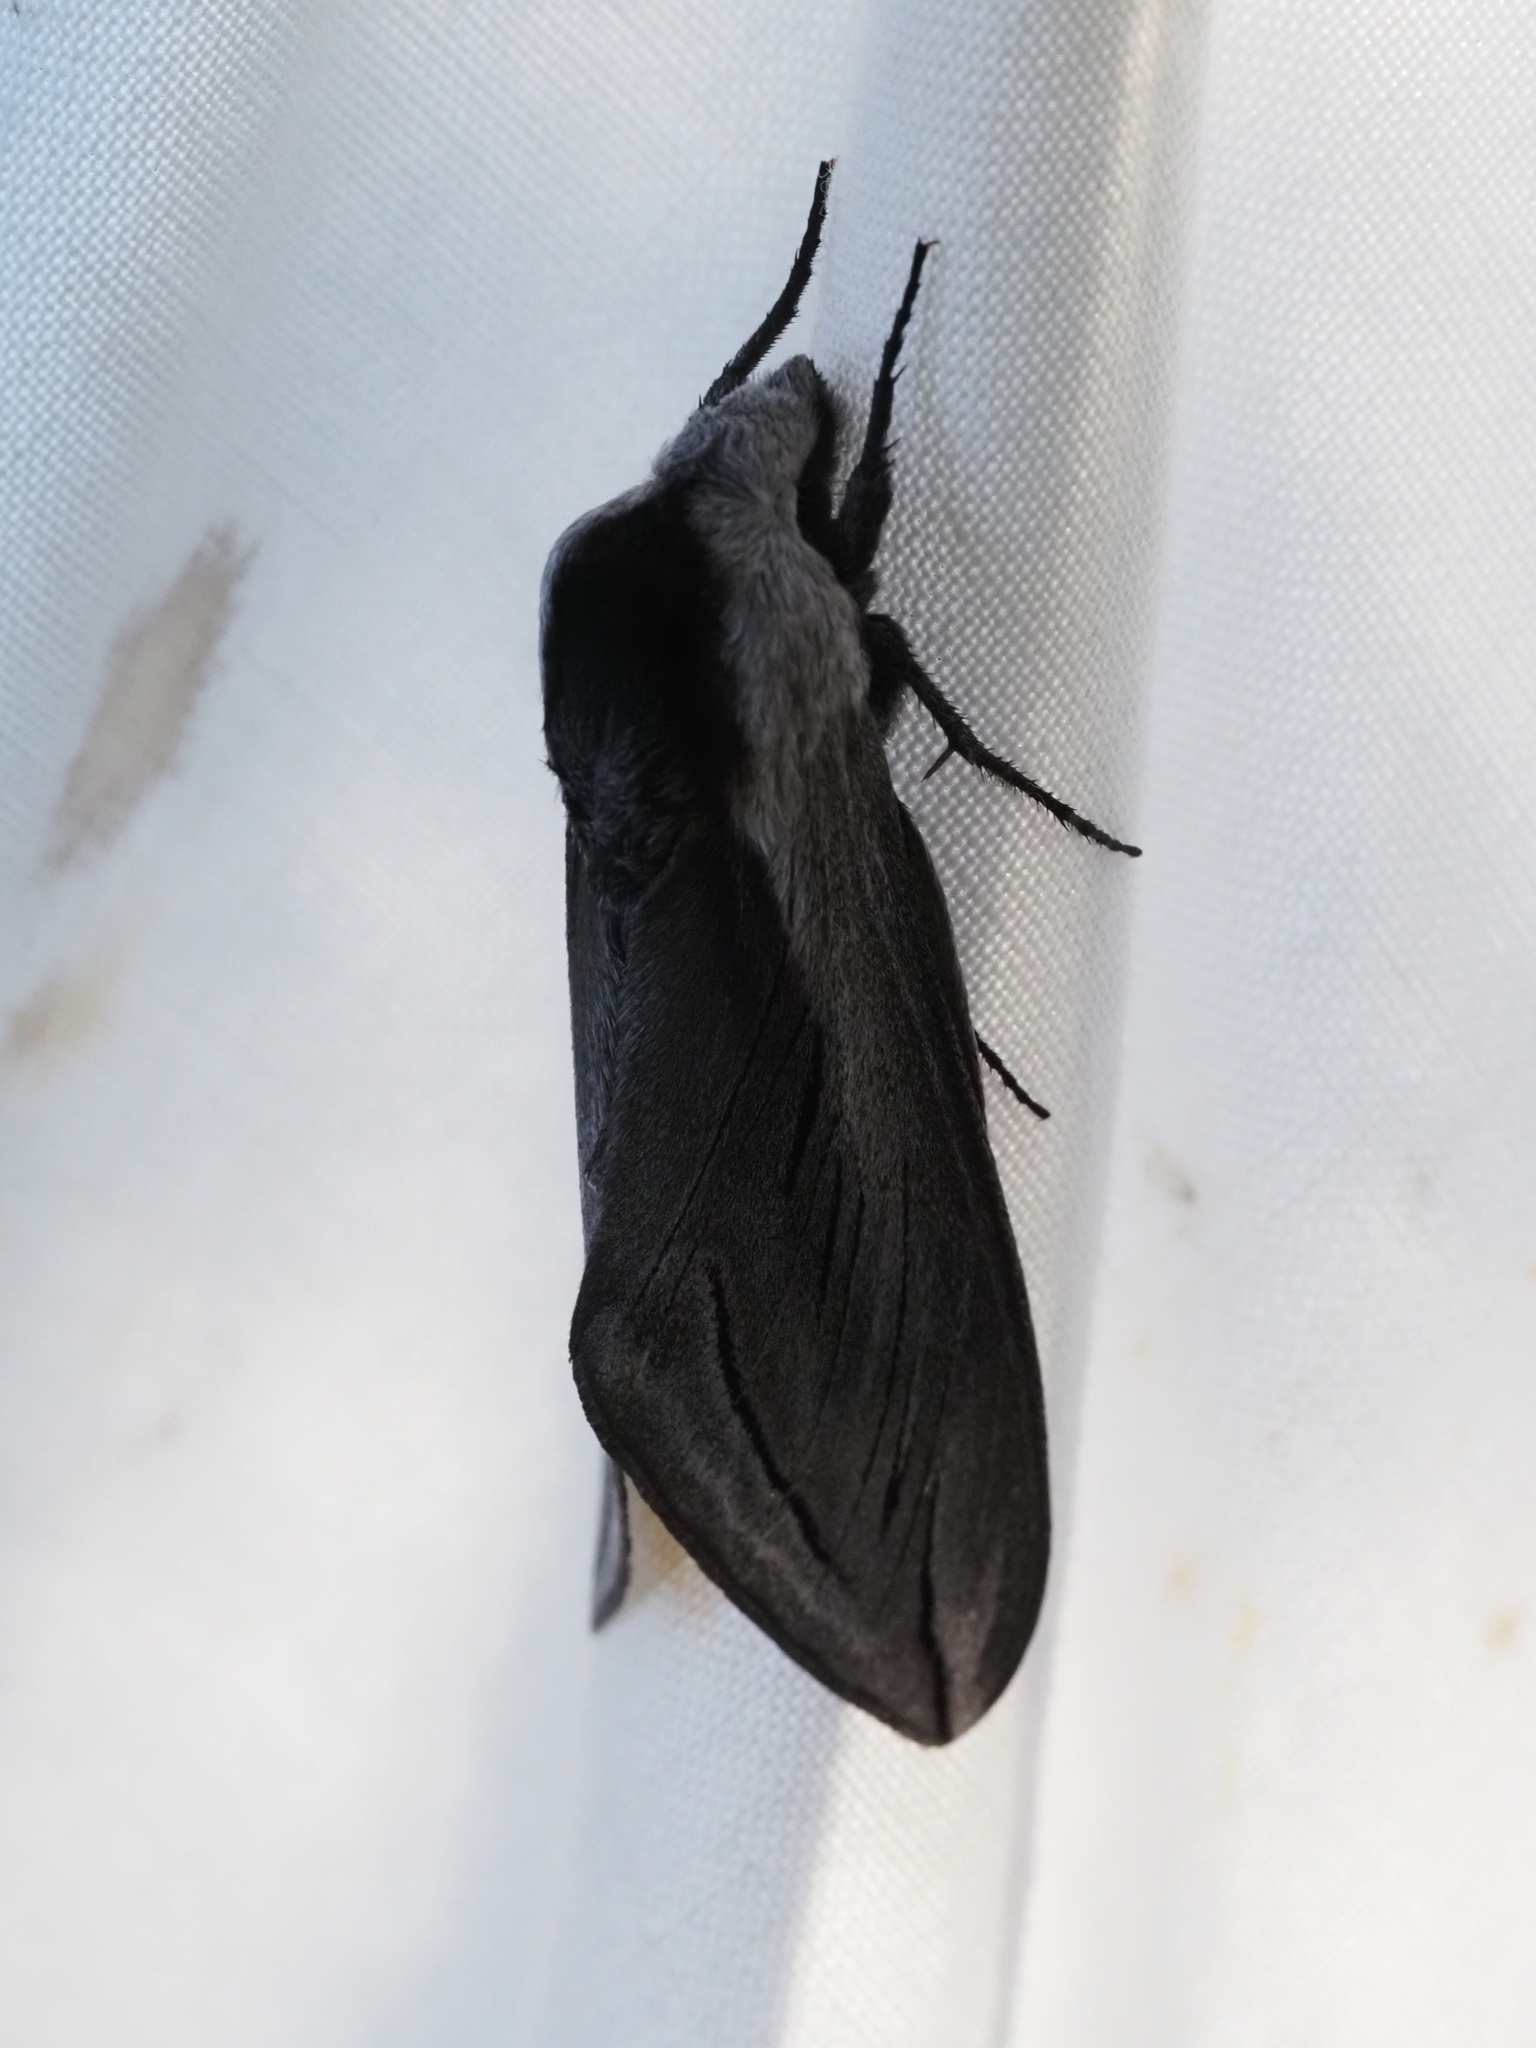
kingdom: Animalia
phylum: Arthropoda
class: Insecta
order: Lepidoptera
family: Sphingidae
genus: Sphinx
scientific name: Sphinx vashti
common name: Snowberry sphinx
